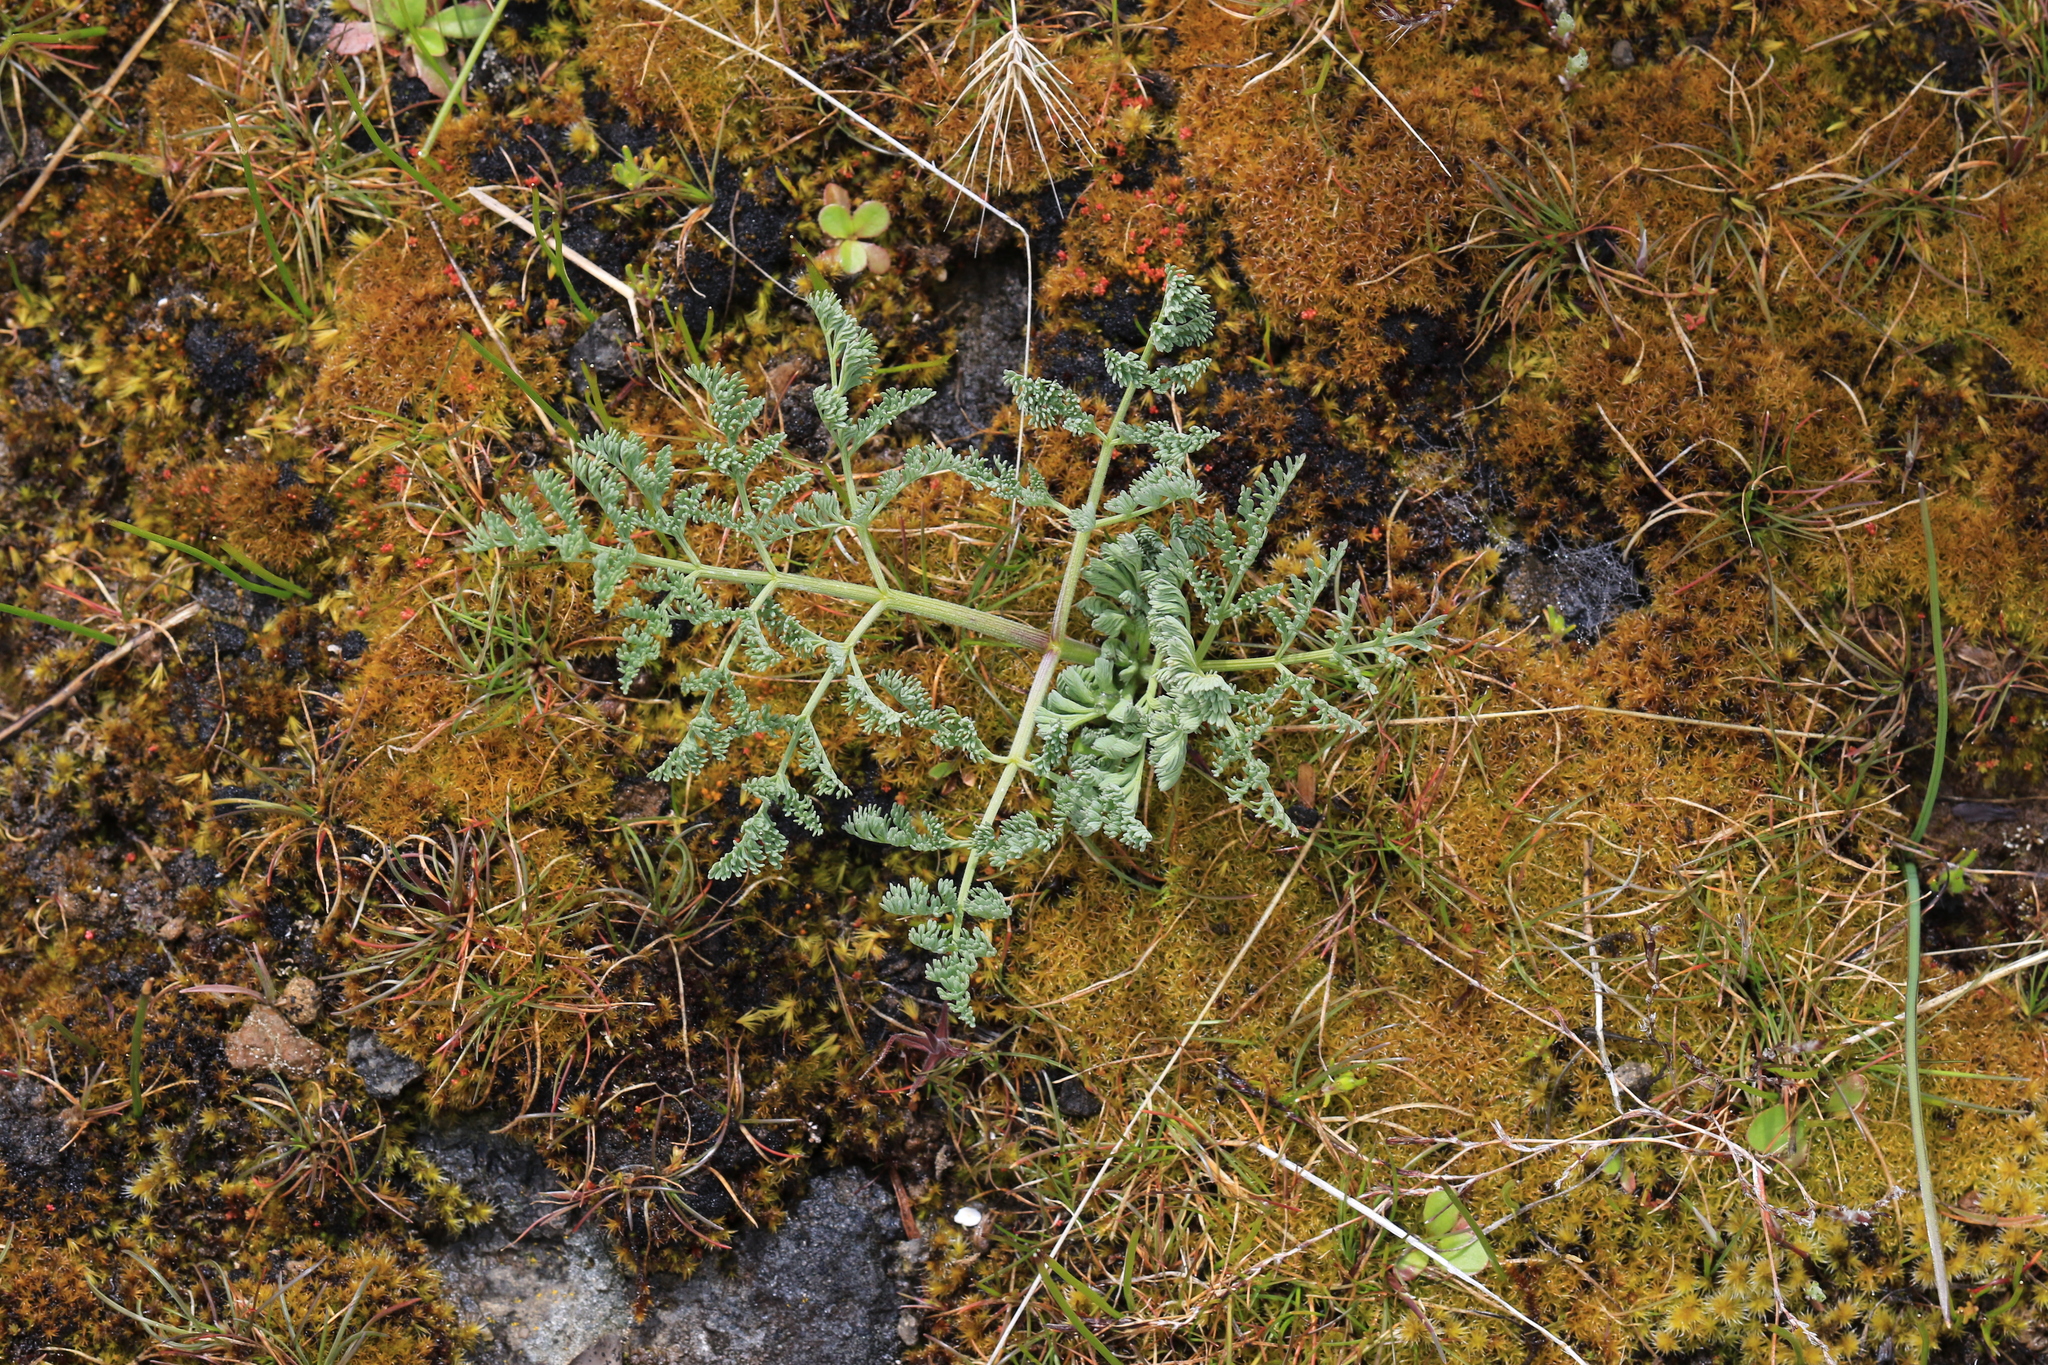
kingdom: Plantae
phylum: Tracheophyta
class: Magnoliopsida
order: Apiales
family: Apiaceae
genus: Lomatium
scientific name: Lomatium macrocarpum
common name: Big-seed biscuitroot
